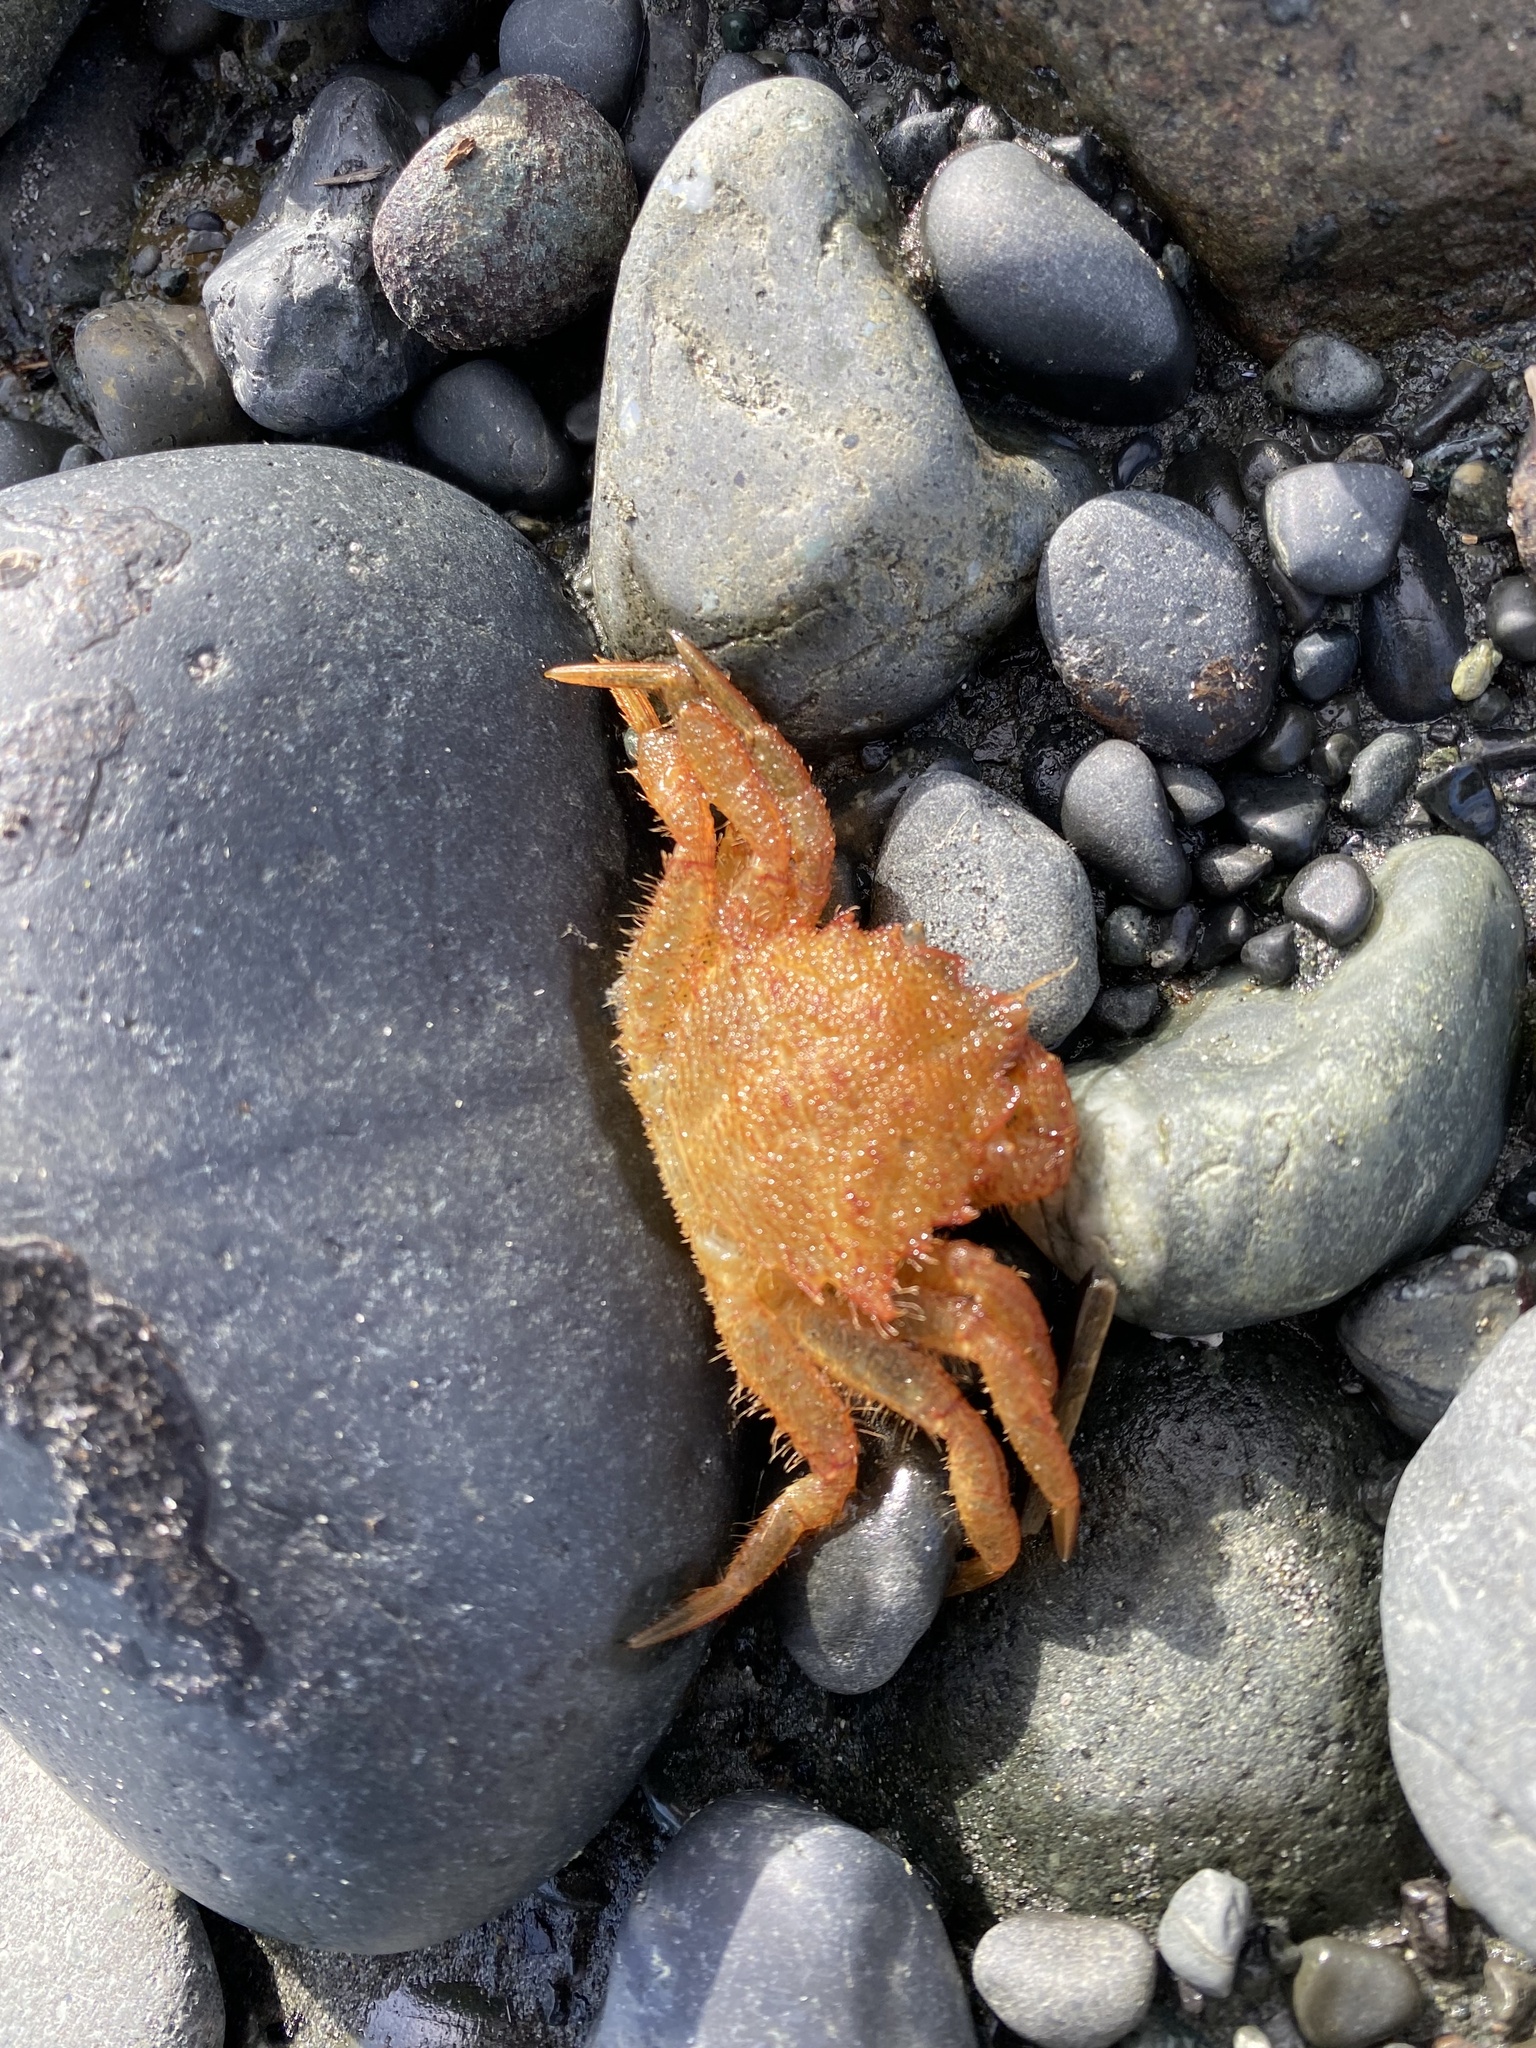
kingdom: Animalia
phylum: Arthropoda
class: Malacostraca
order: Decapoda
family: Cheiragonidae
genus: Telmessus
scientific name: Telmessus cheiragonus
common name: Helmet crab
